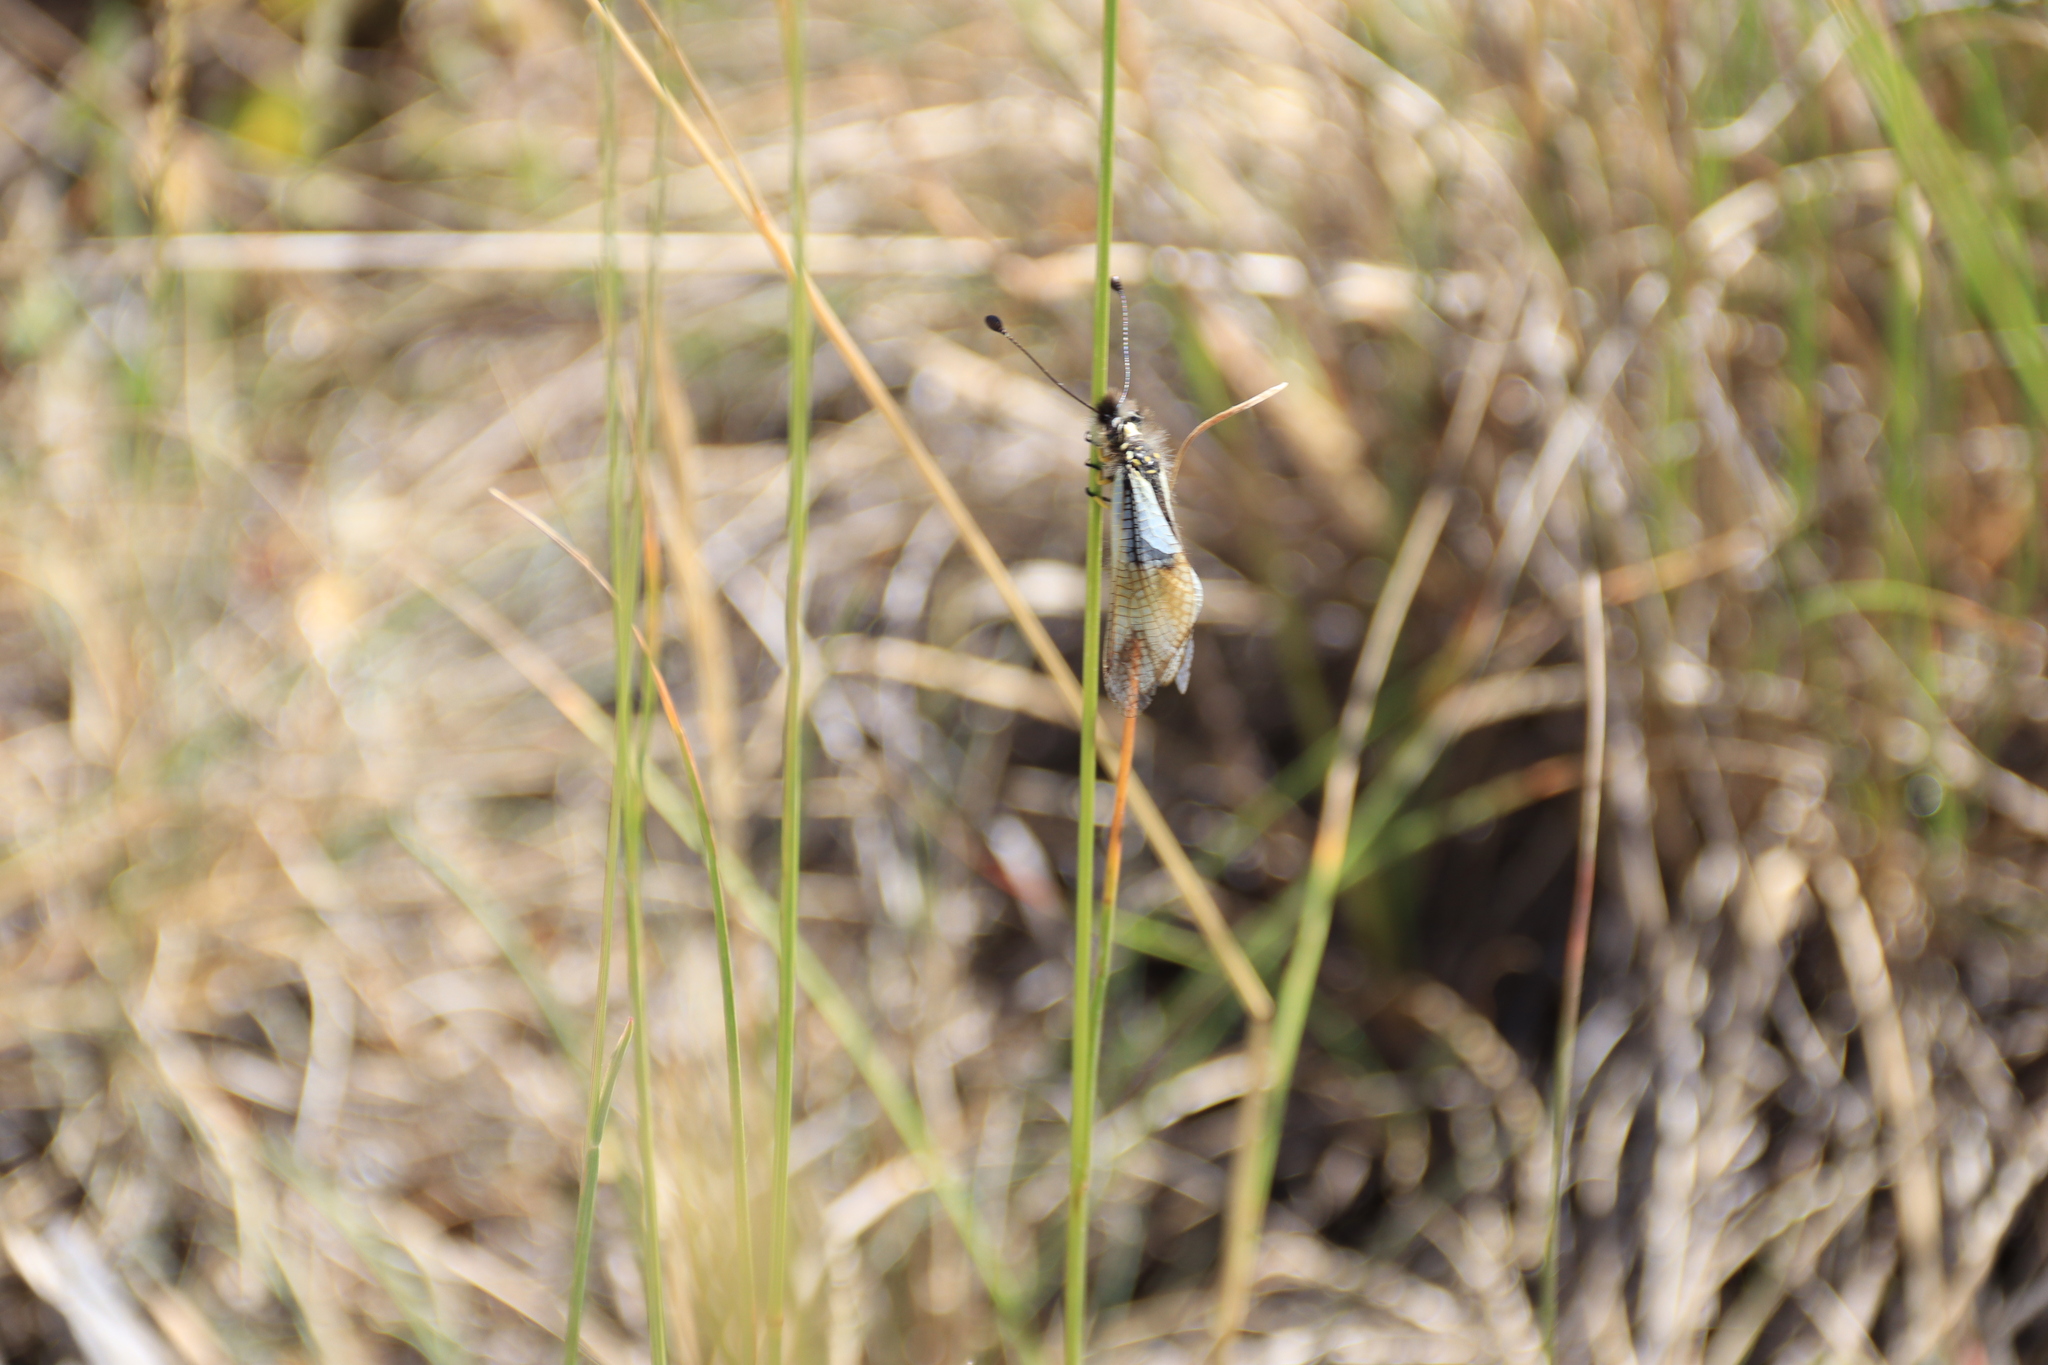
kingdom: Animalia
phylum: Arthropoda
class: Insecta
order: Neuroptera
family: Ascalaphidae
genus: Libelloides
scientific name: Libelloides lacteus
